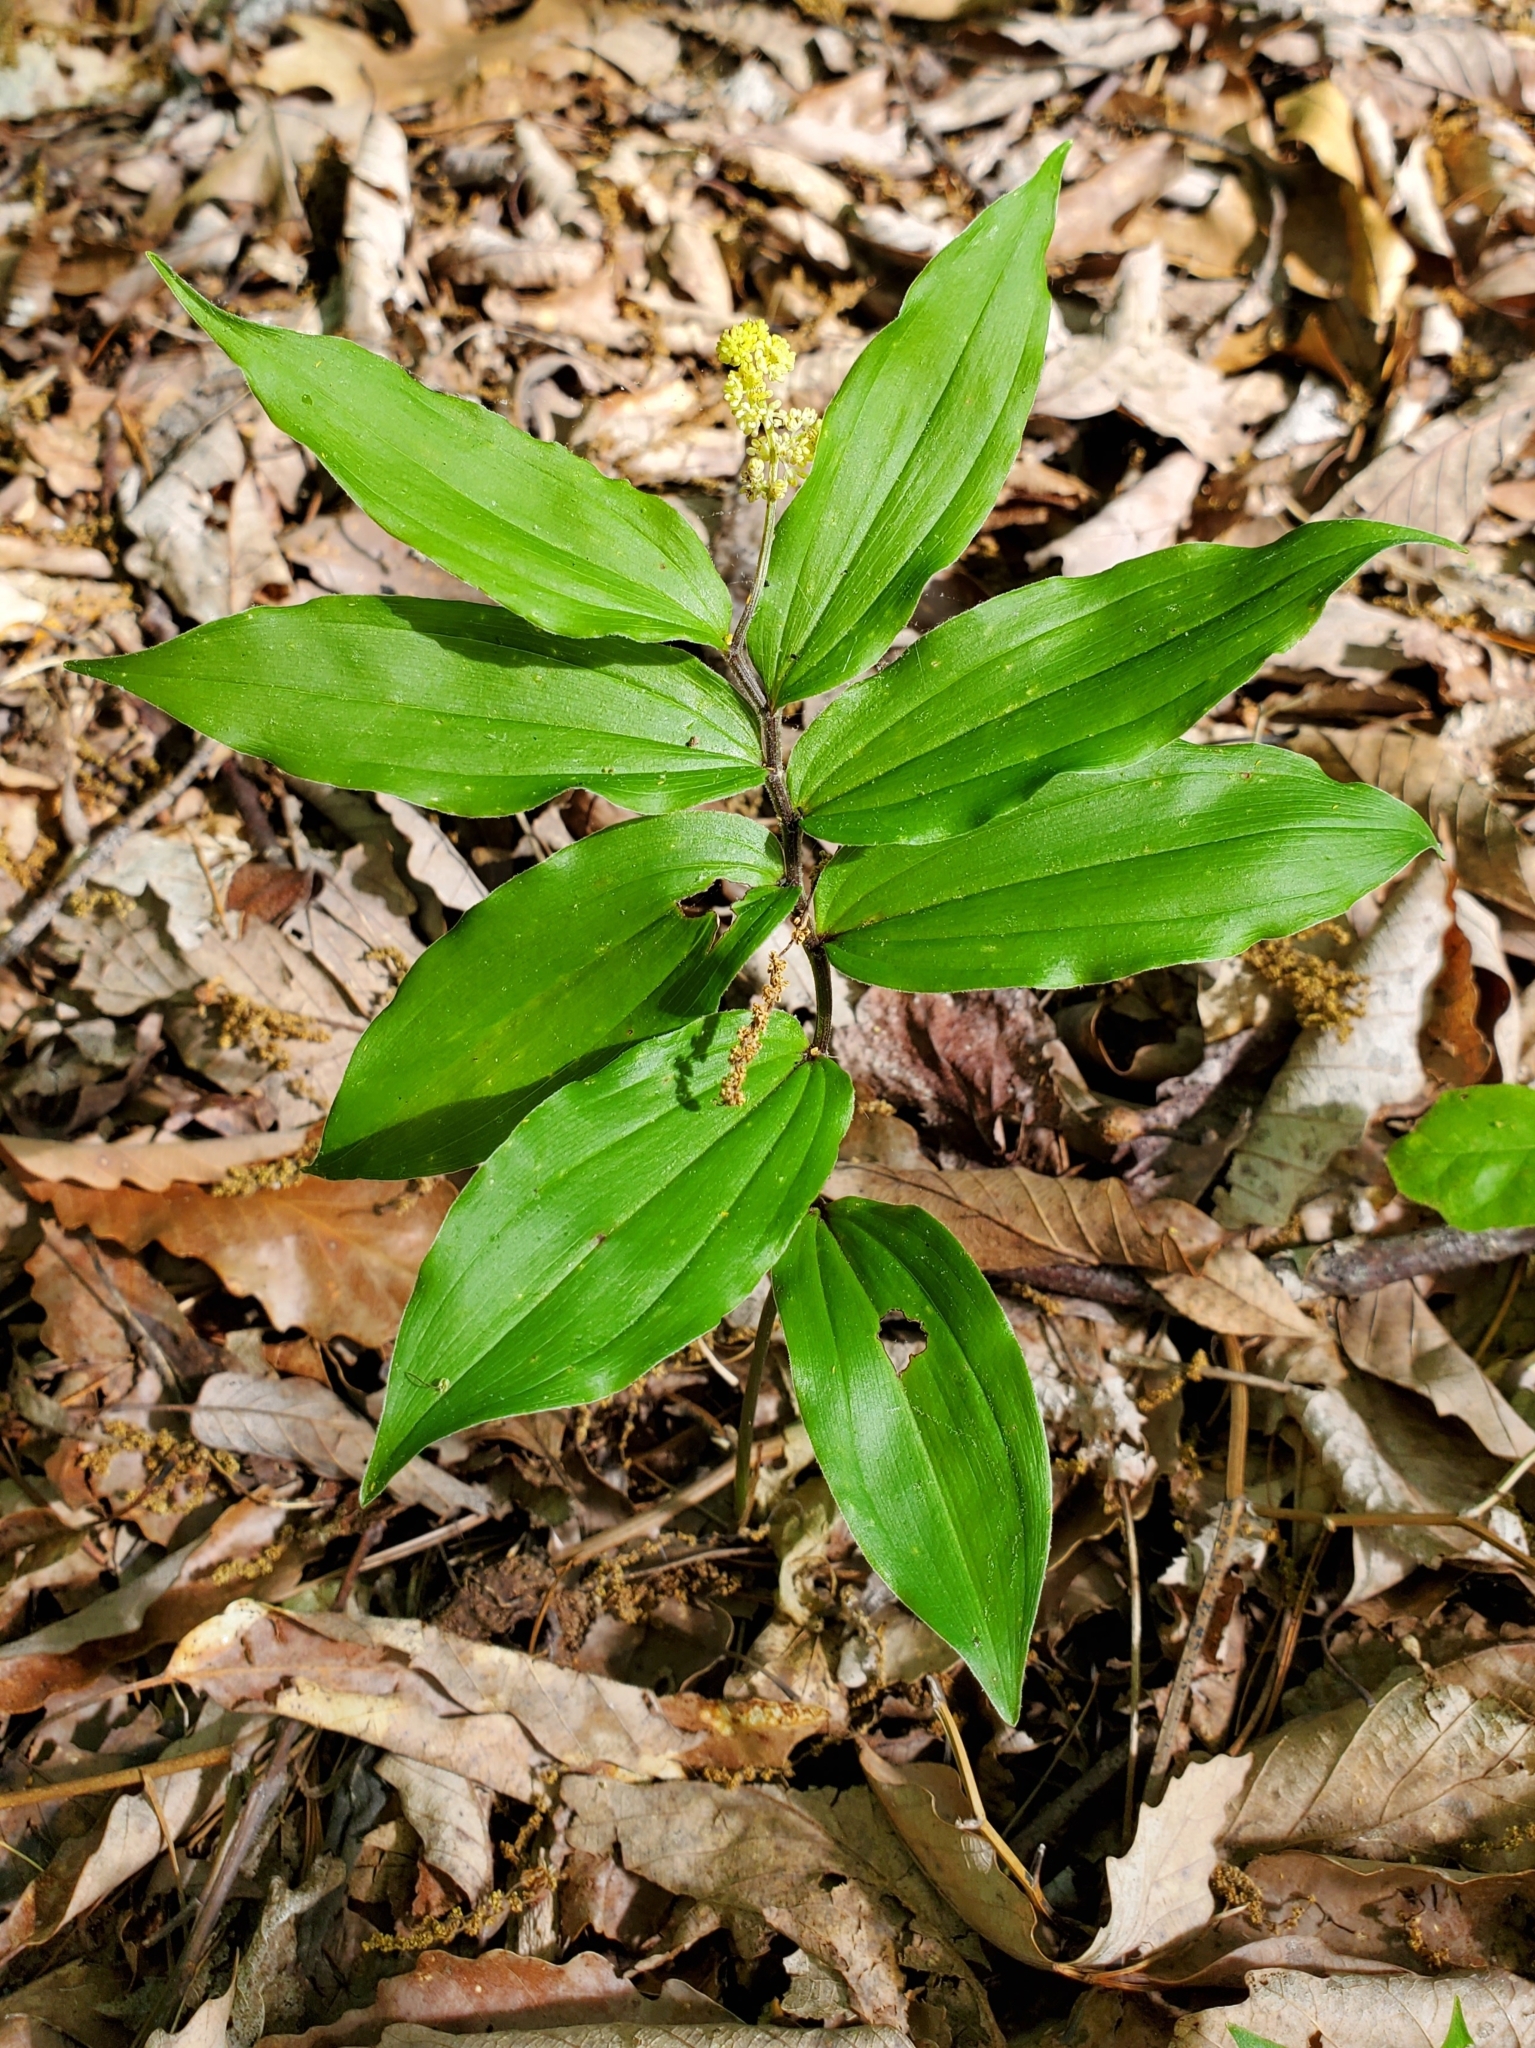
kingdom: Plantae
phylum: Tracheophyta
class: Liliopsida
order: Asparagales
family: Asparagaceae
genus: Maianthemum
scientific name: Maianthemum racemosum
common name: False spikenard
